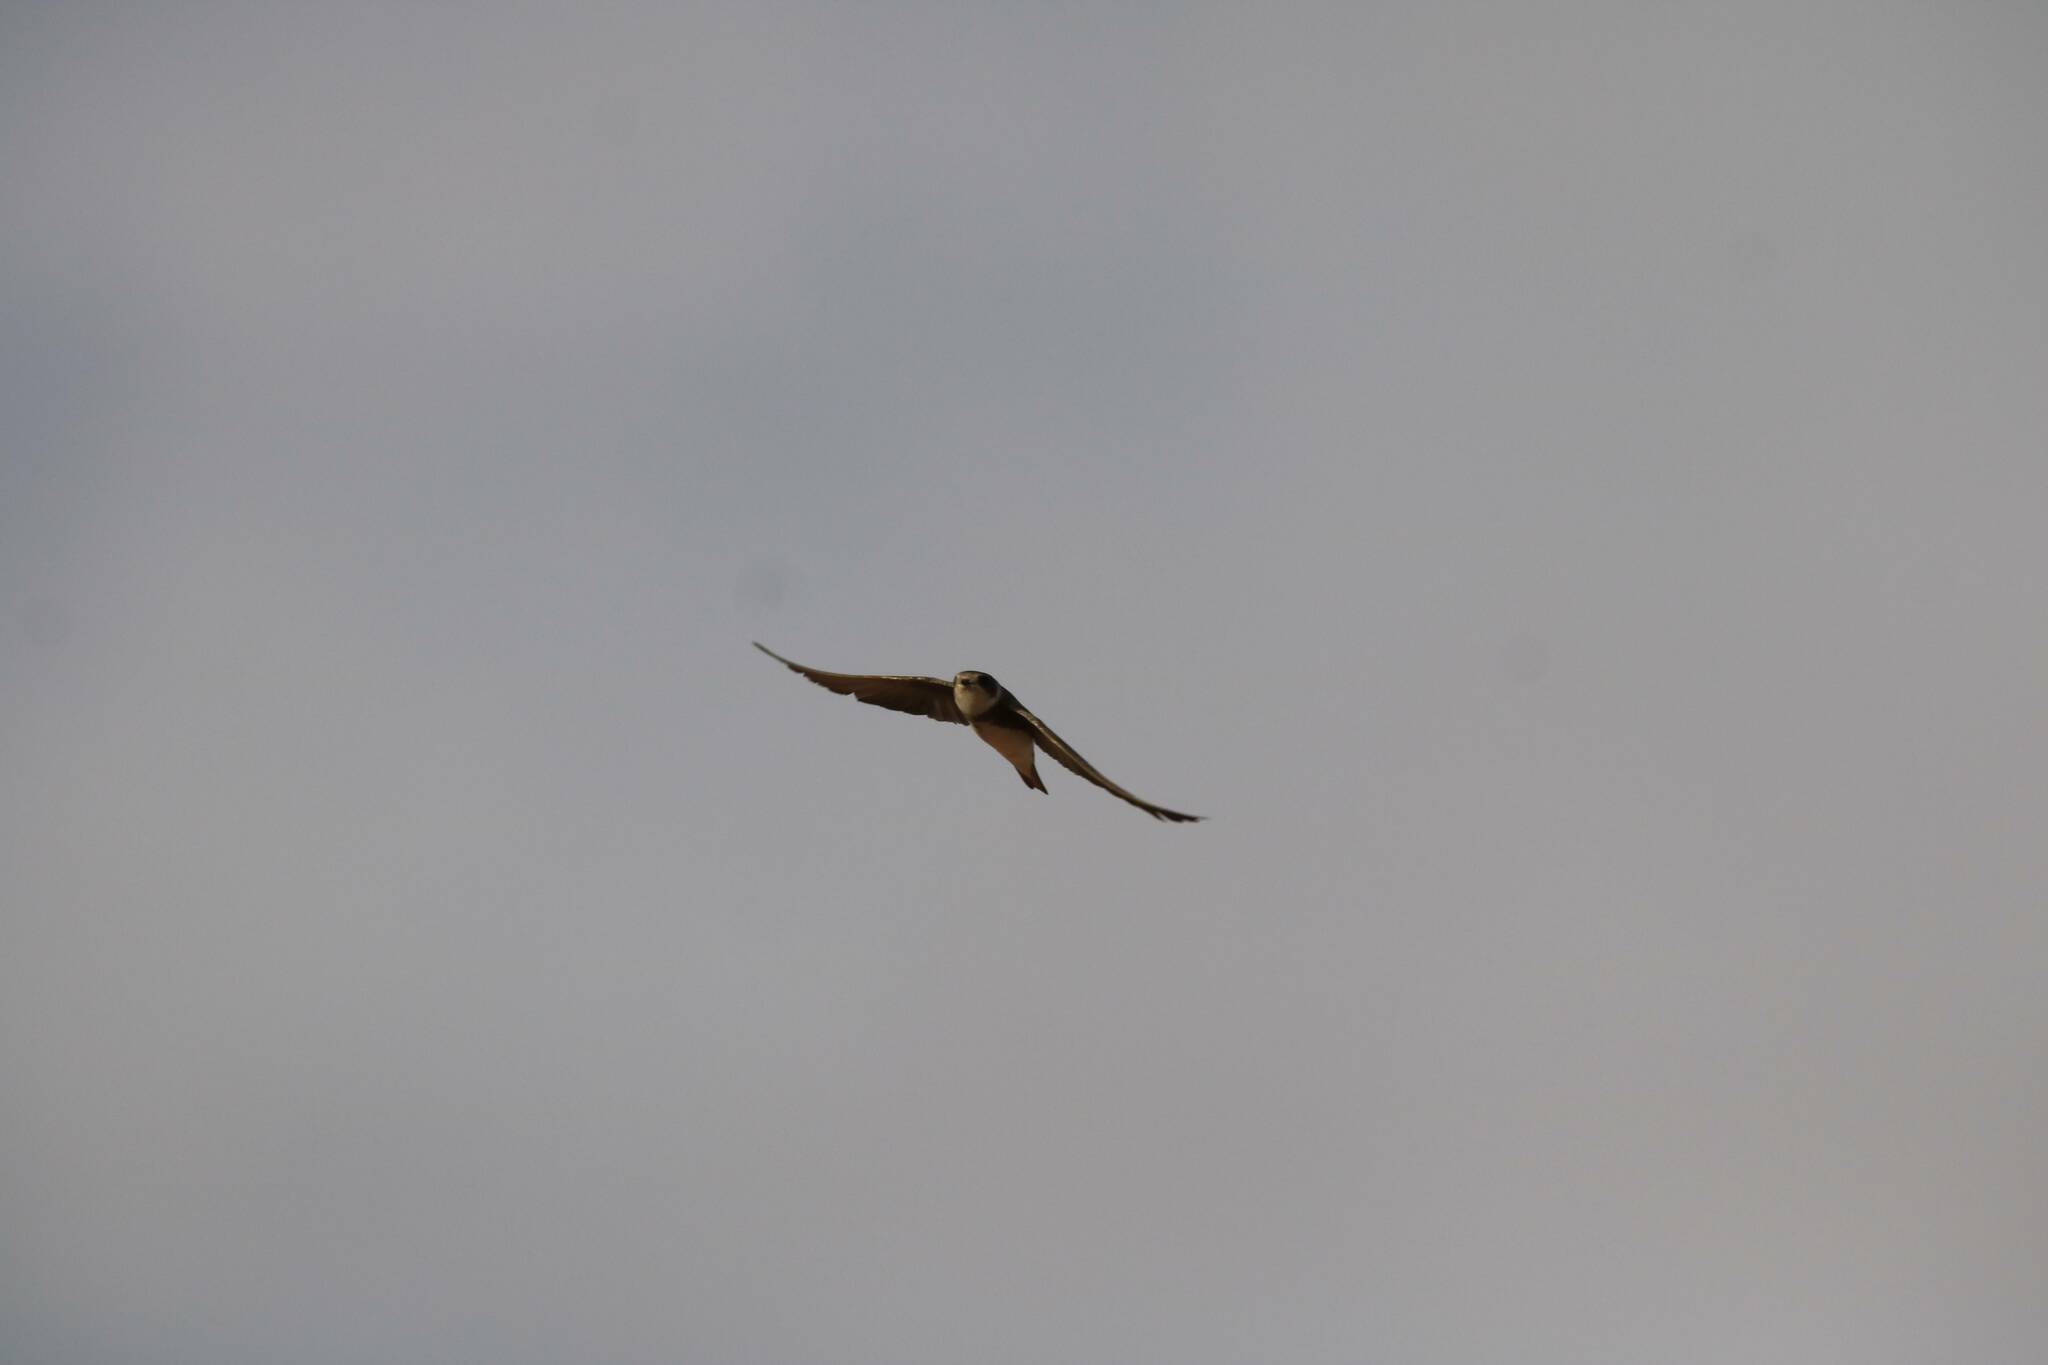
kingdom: Animalia
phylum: Chordata
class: Aves
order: Passeriformes
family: Hirundinidae
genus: Riparia
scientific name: Riparia riparia
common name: Sand martin
